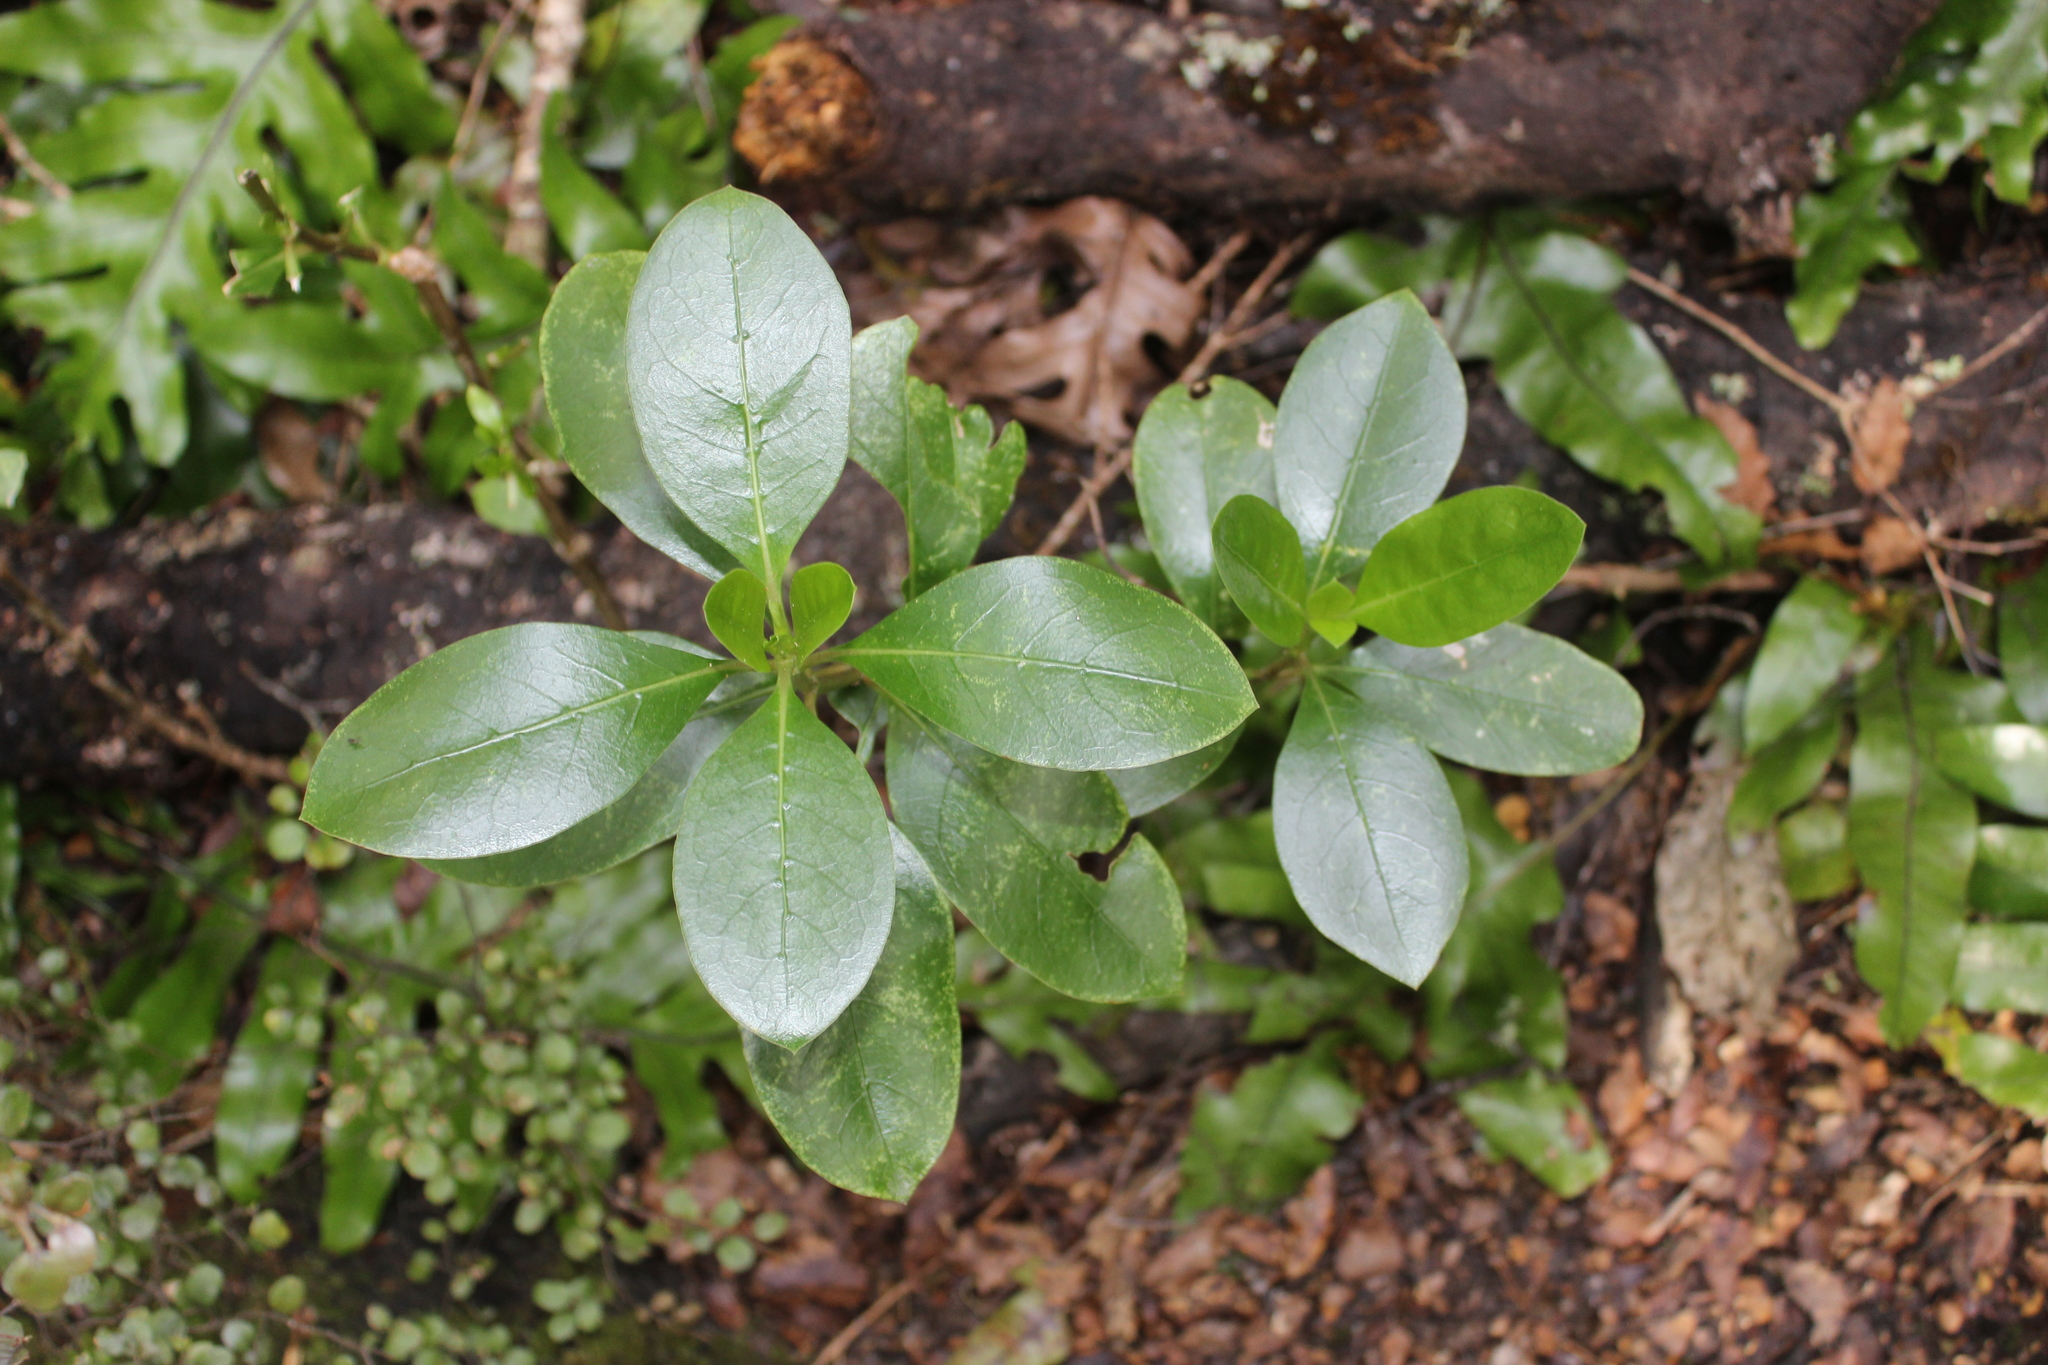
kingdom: Plantae
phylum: Tracheophyta
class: Magnoliopsida
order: Gentianales
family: Rubiaceae
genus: Coprosma
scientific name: Coprosma lucida
